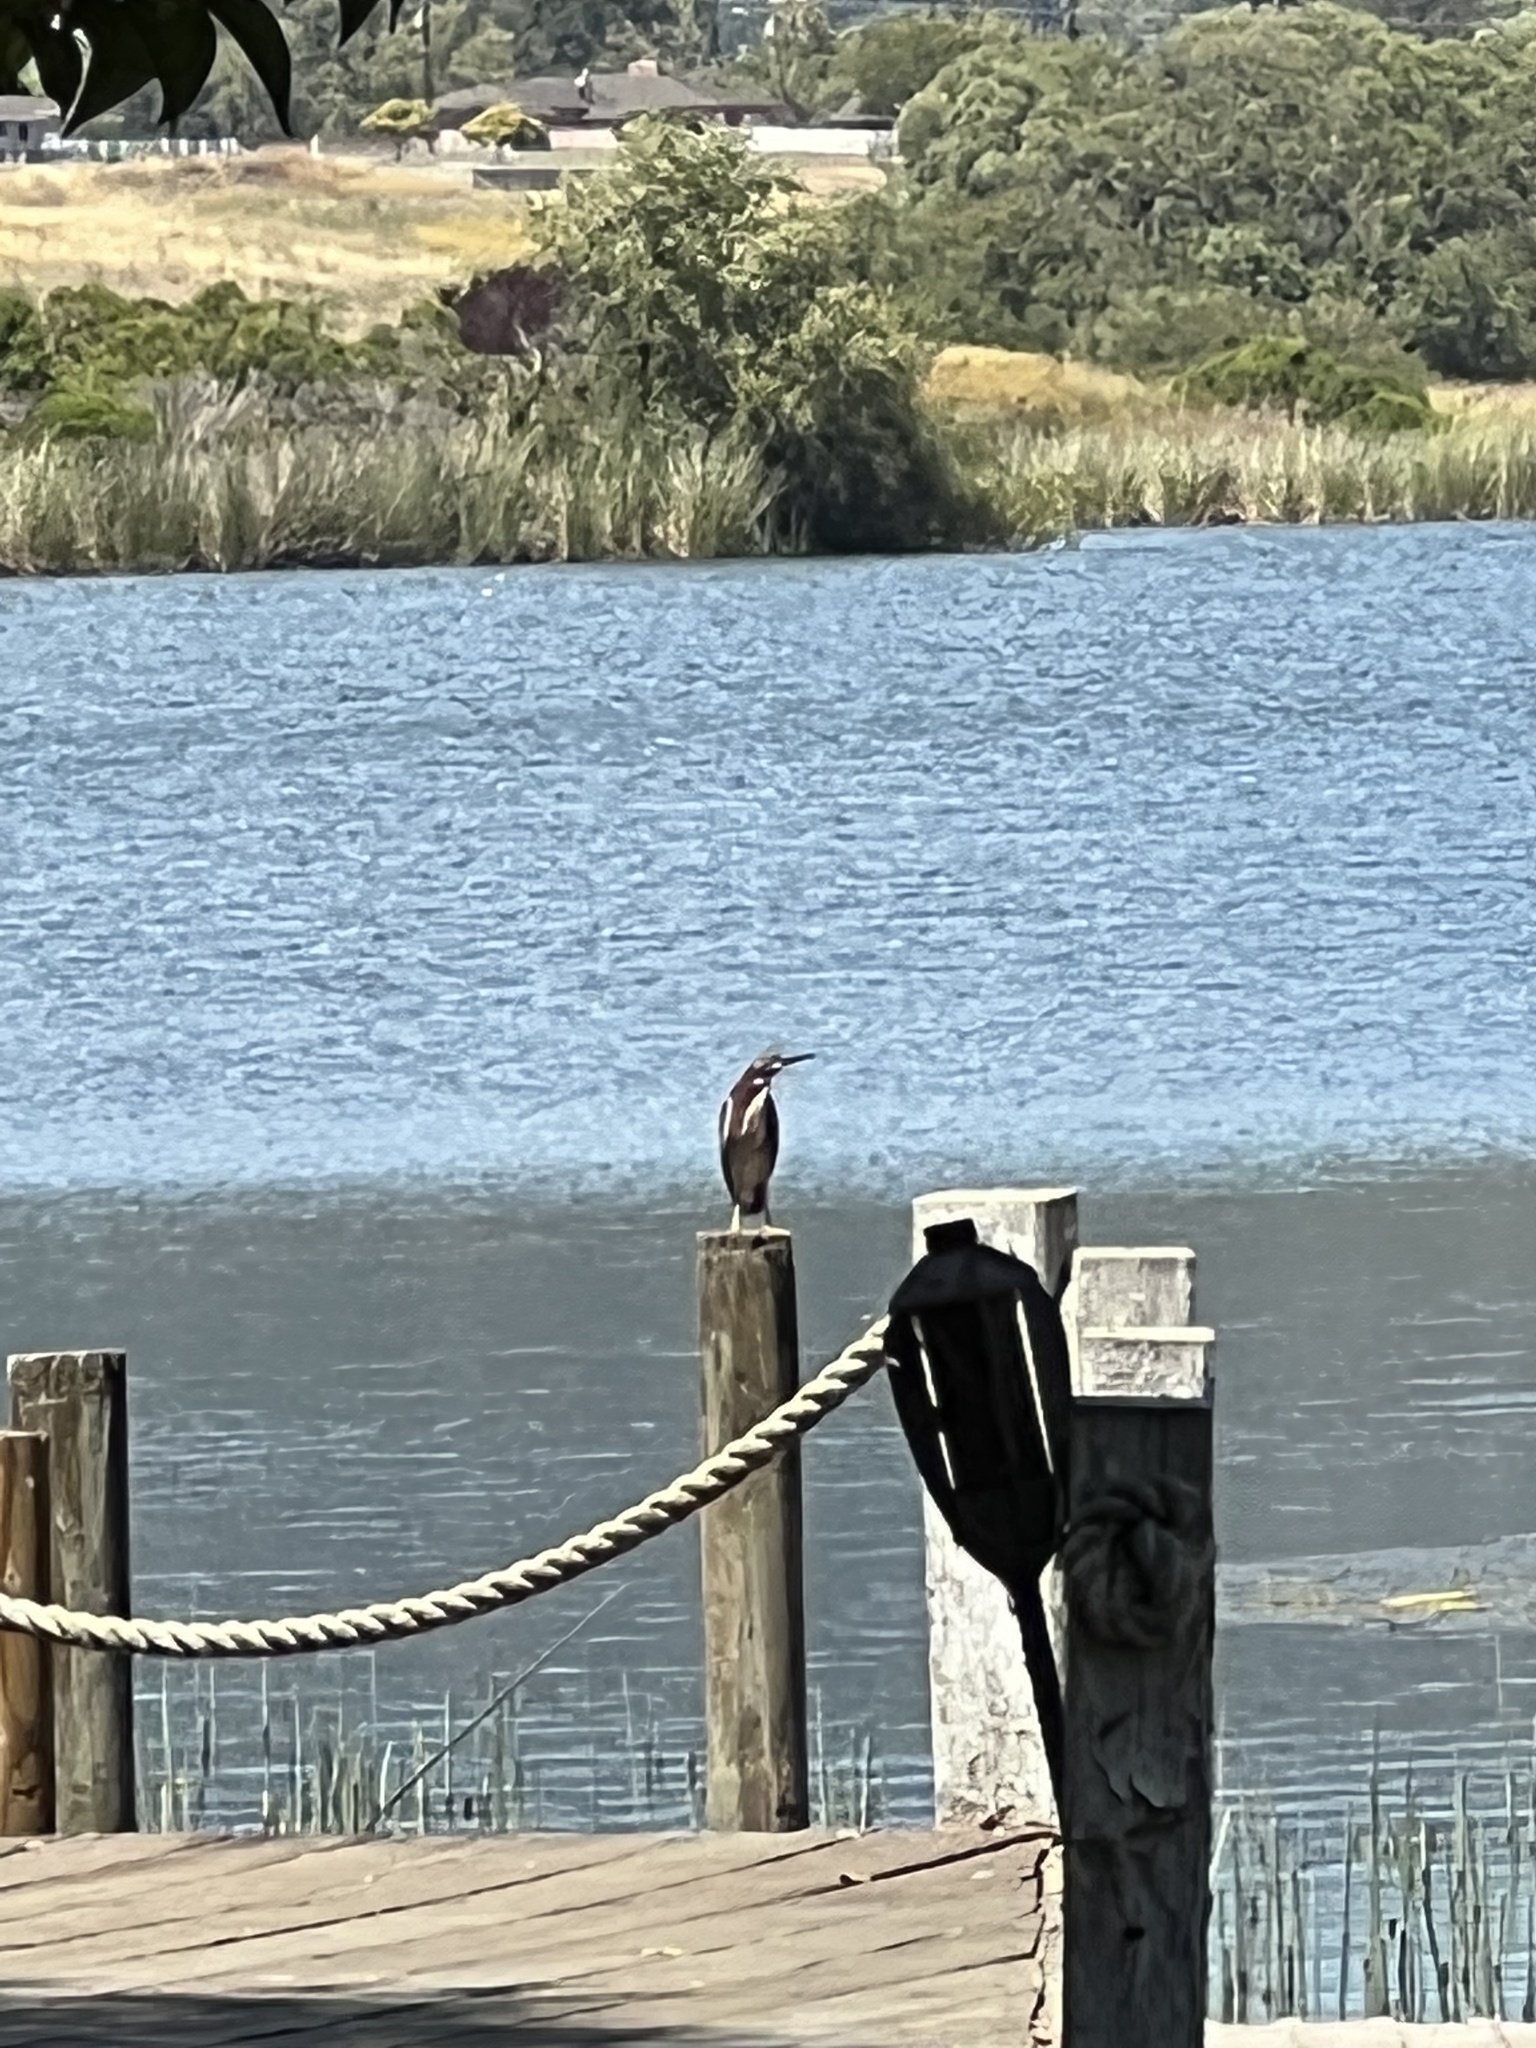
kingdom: Animalia
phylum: Chordata
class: Aves
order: Pelecaniformes
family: Ardeidae
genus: Butorides
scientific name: Butorides virescens
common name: Green heron
